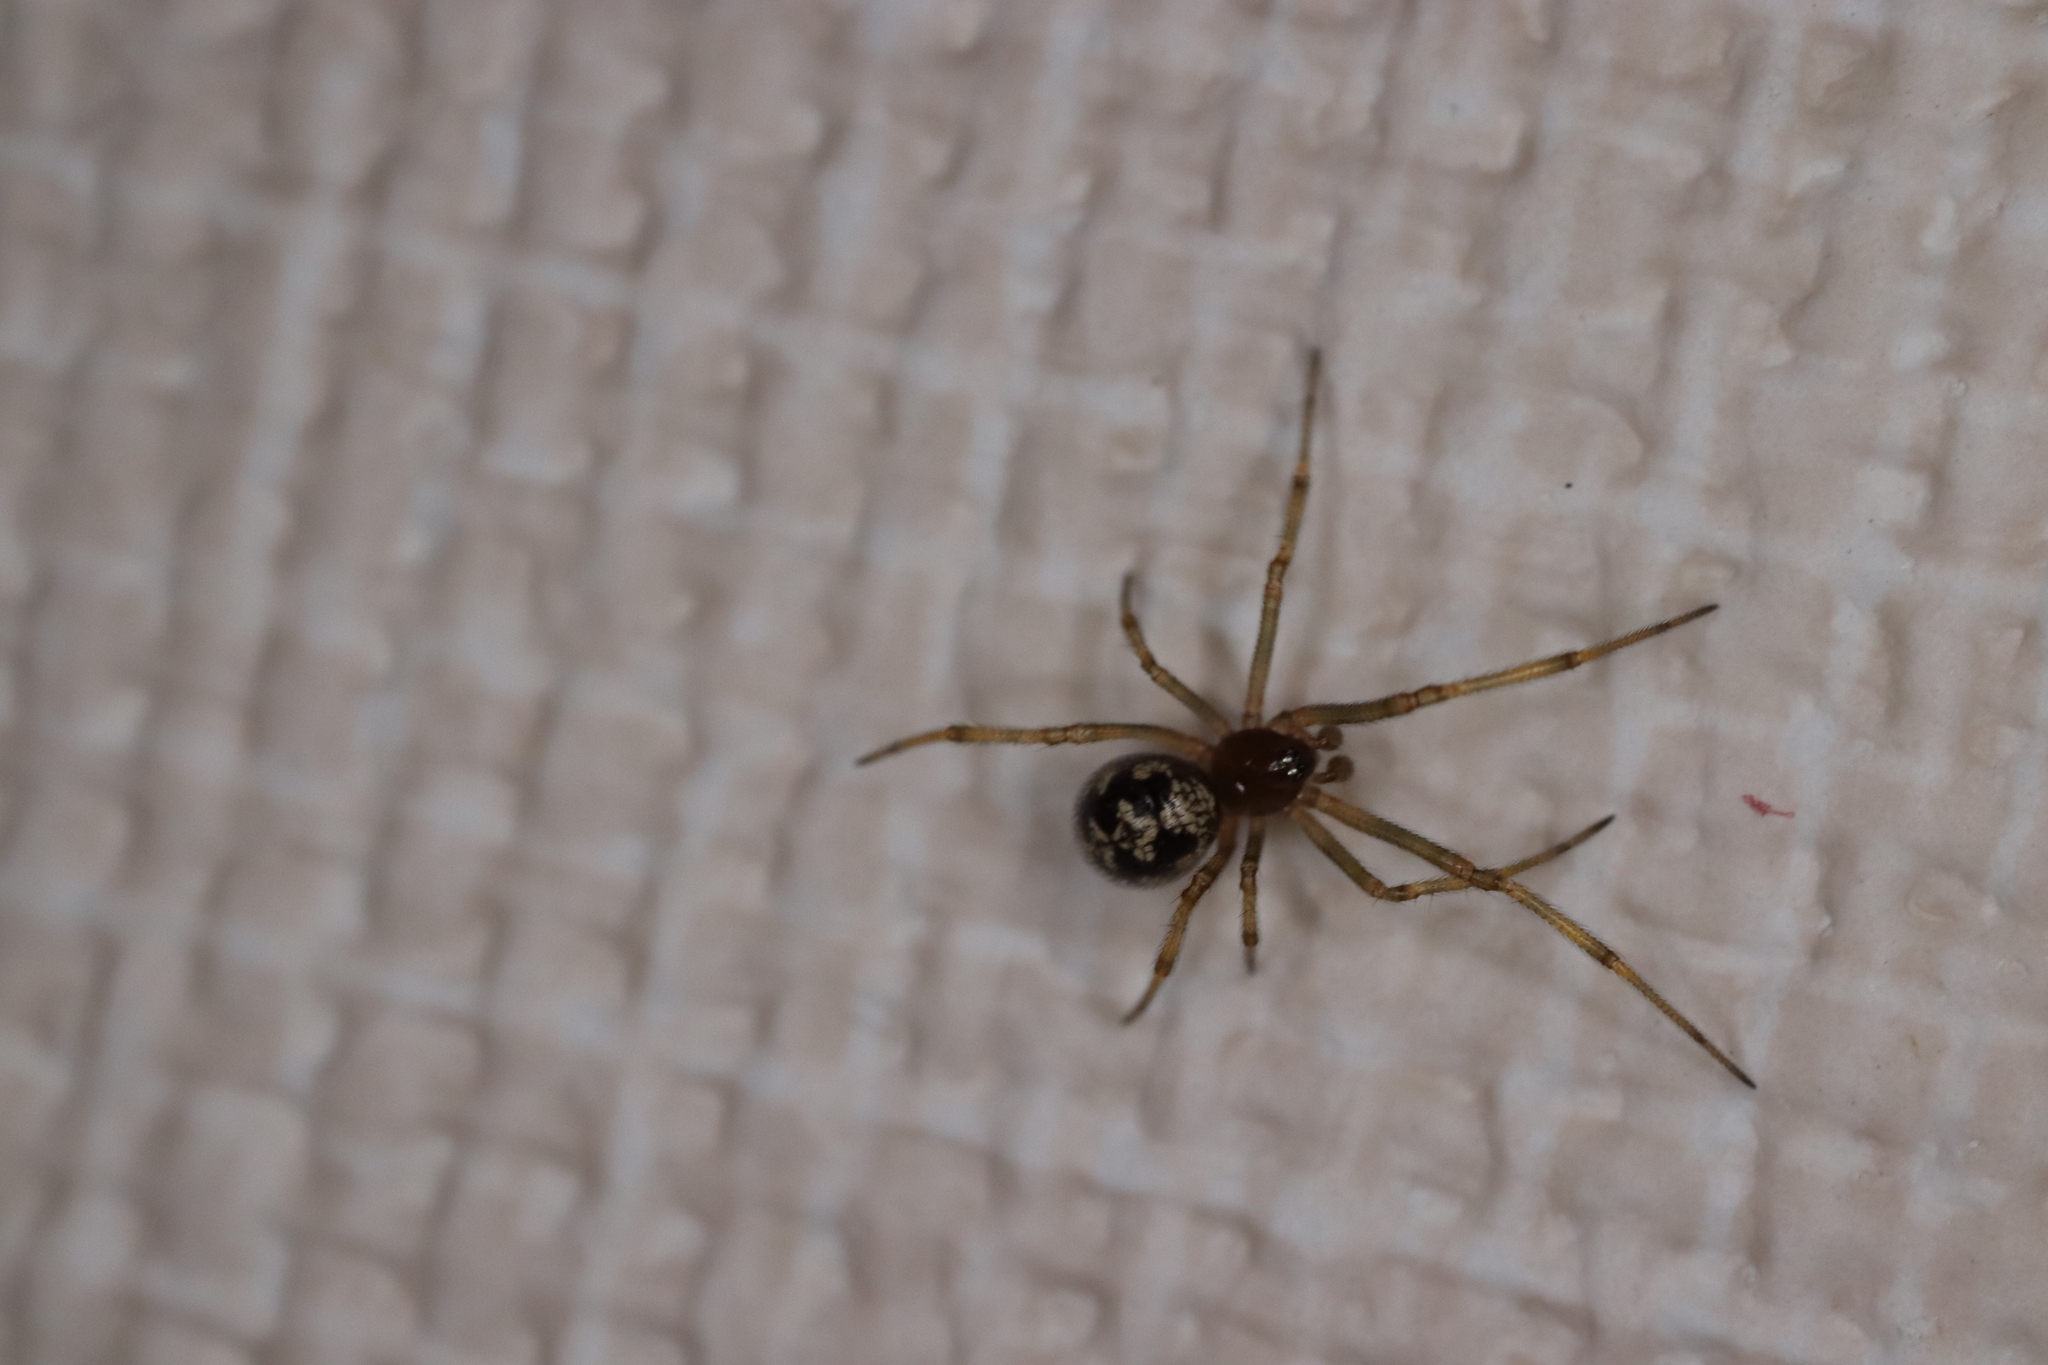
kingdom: Animalia
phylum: Arthropoda
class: Arachnida
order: Araneae
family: Theridiidae
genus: Steatoda
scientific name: Steatoda triangulosa
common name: Triangulate bud spider
